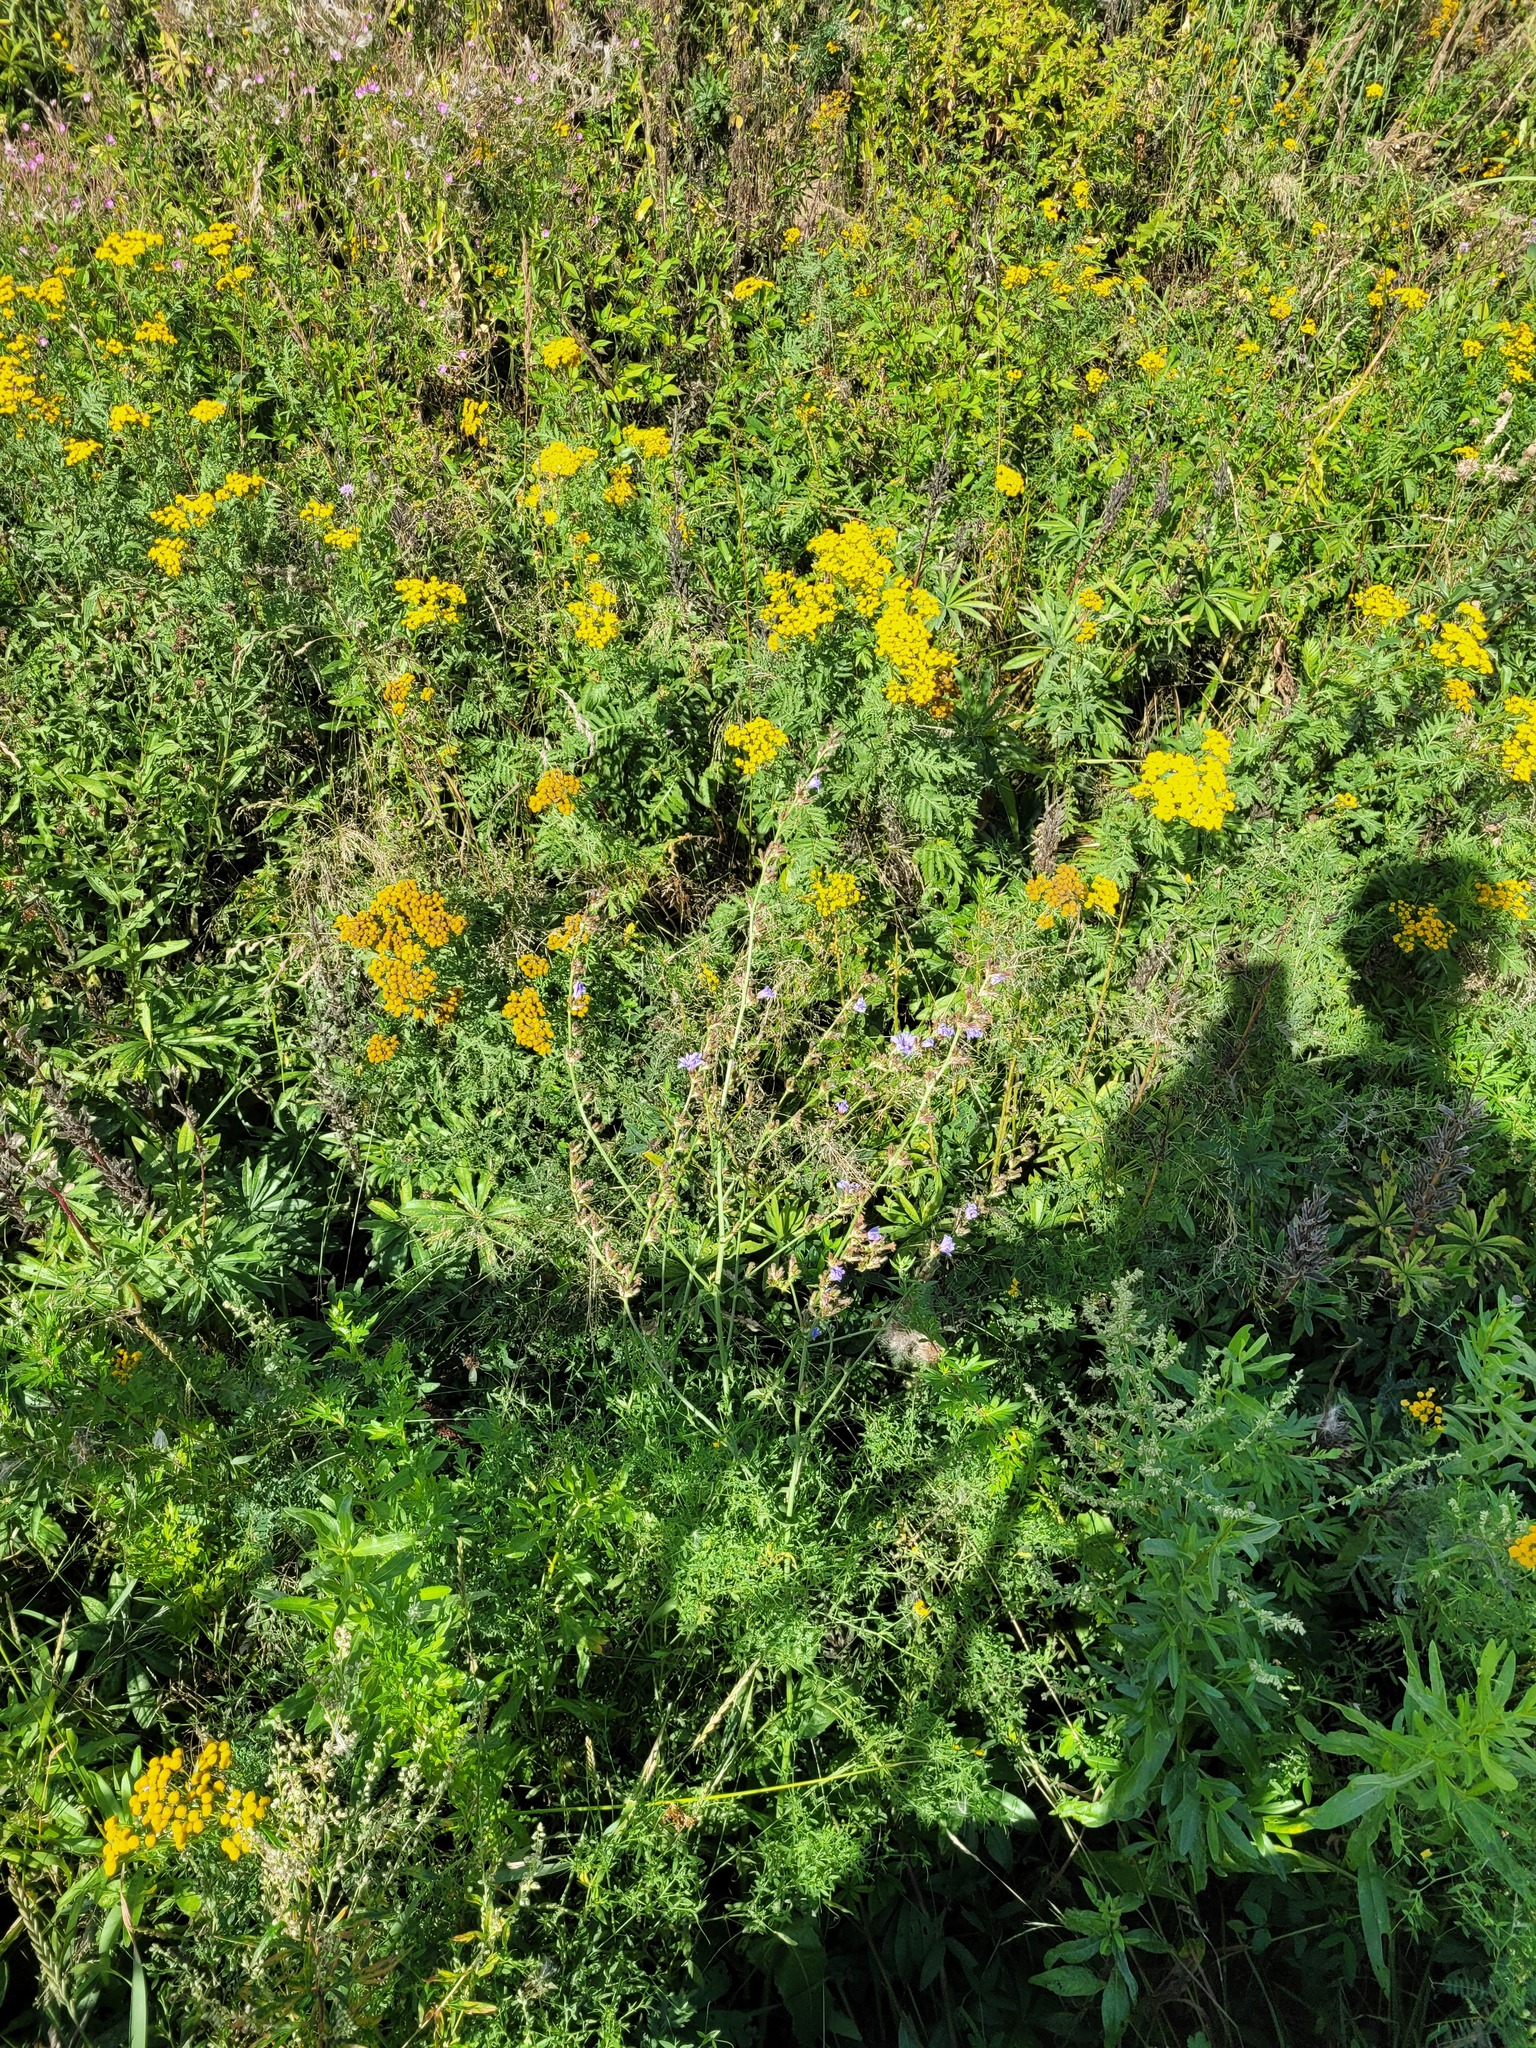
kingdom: Plantae
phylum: Tracheophyta
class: Magnoliopsida
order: Asterales
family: Asteraceae
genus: Cichorium
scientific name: Cichorium intybus
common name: Chicory
